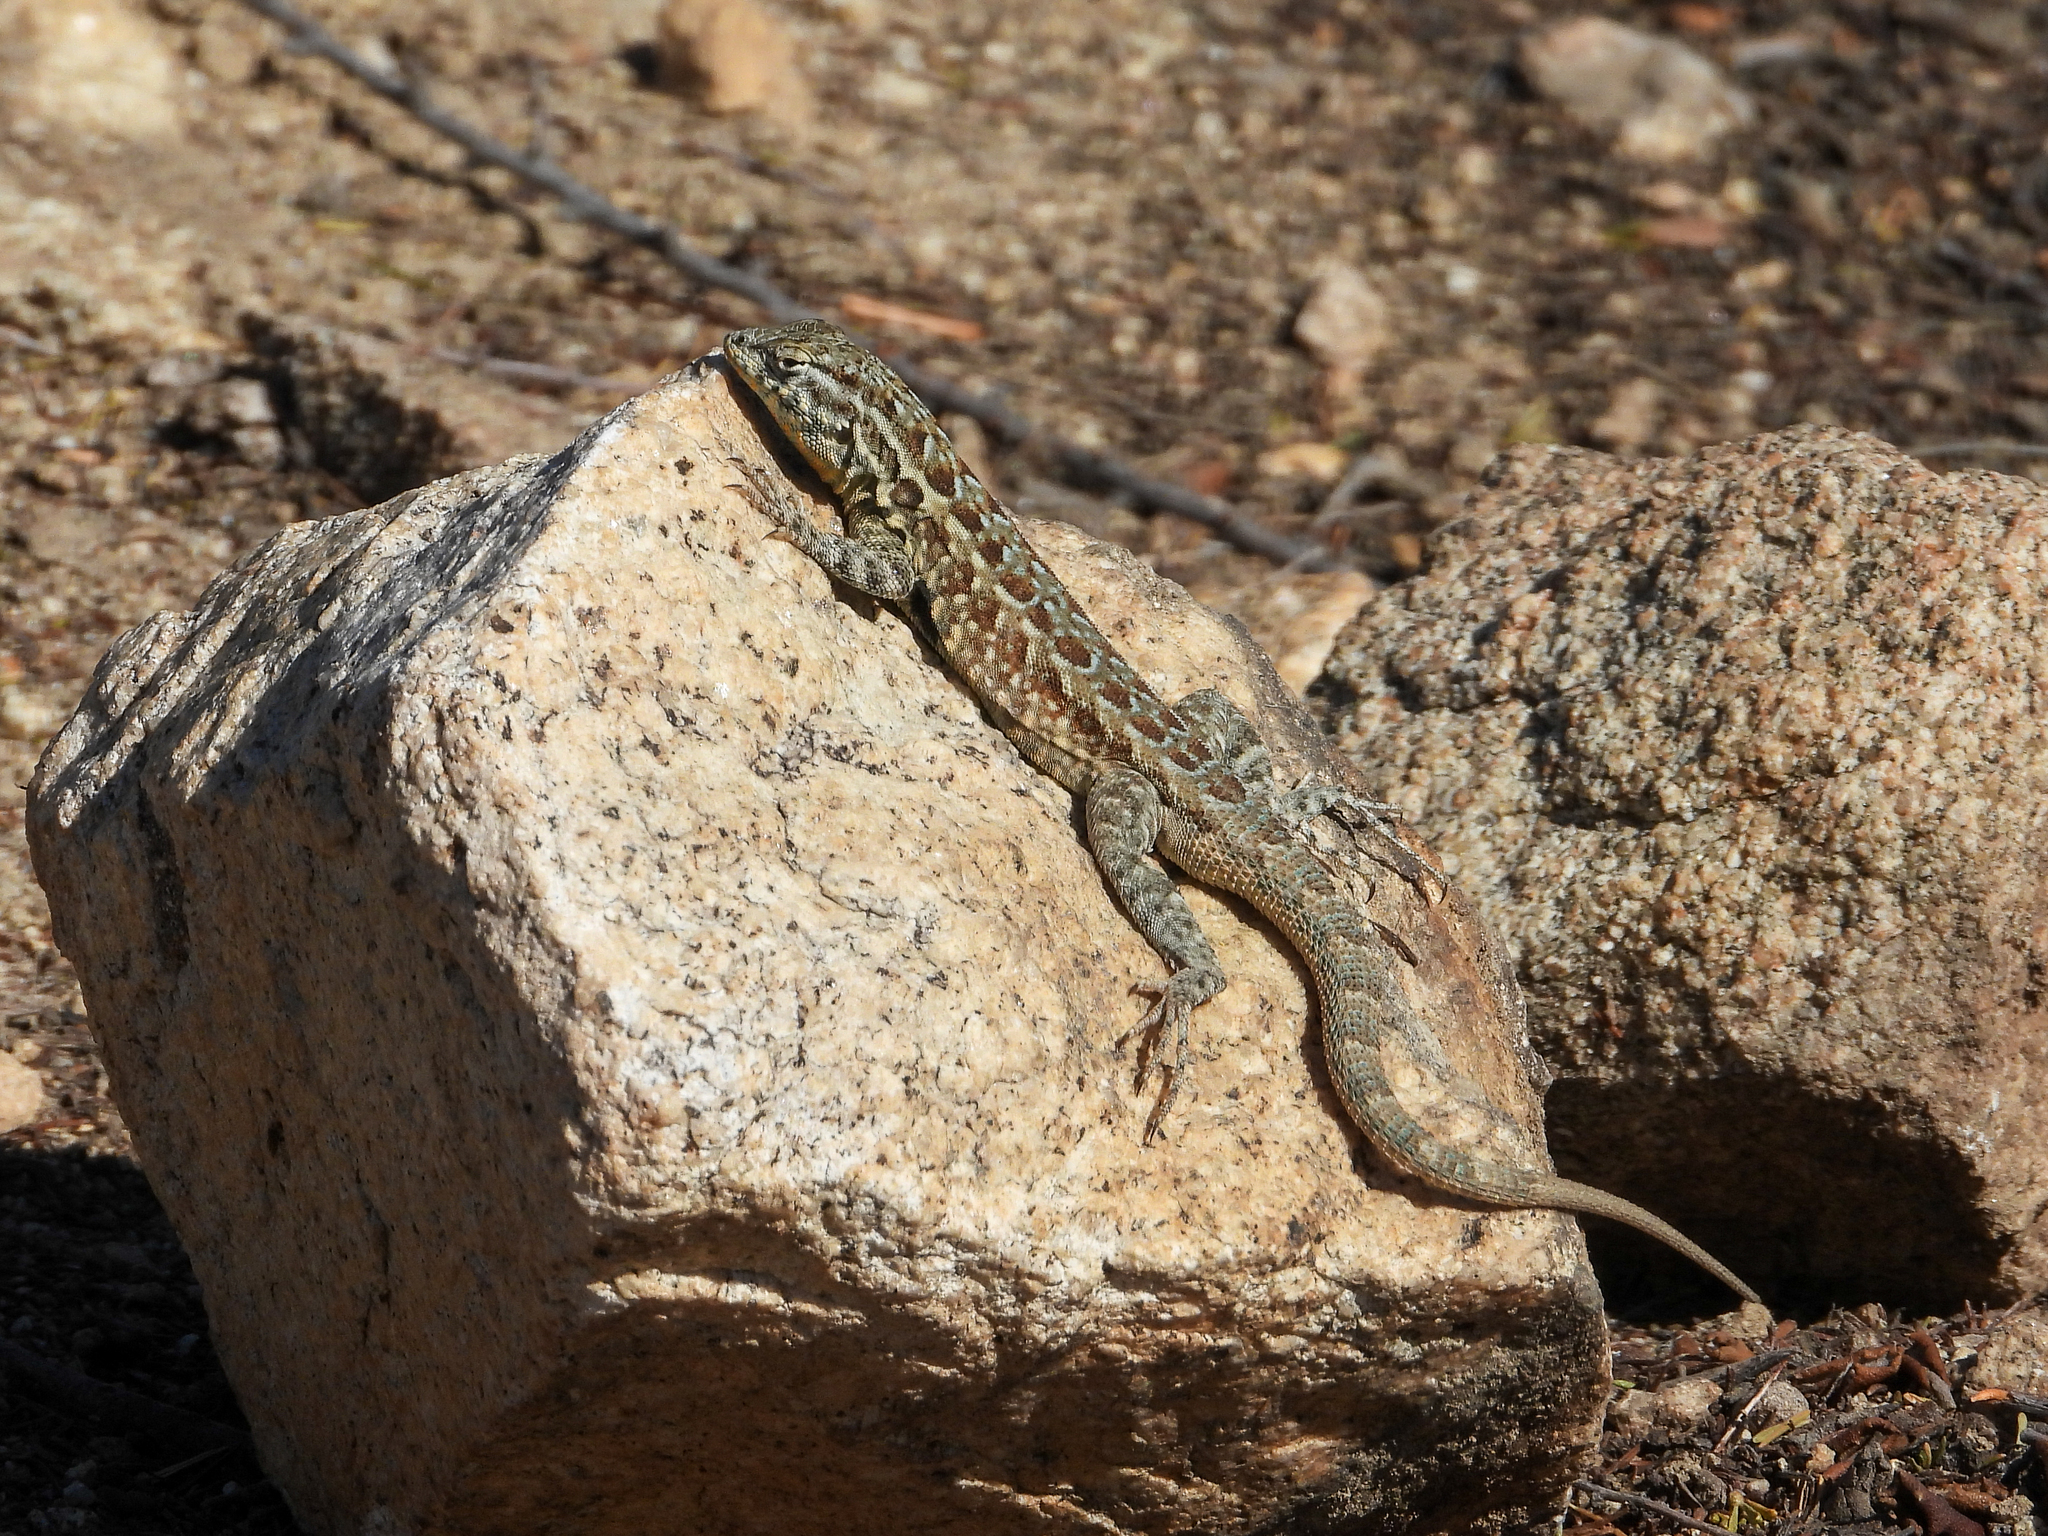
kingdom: Animalia
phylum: Chordata
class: Squamata
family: Phrynosomatidae
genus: Uta
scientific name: Uta stansburiana
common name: Side-blotched lizard
